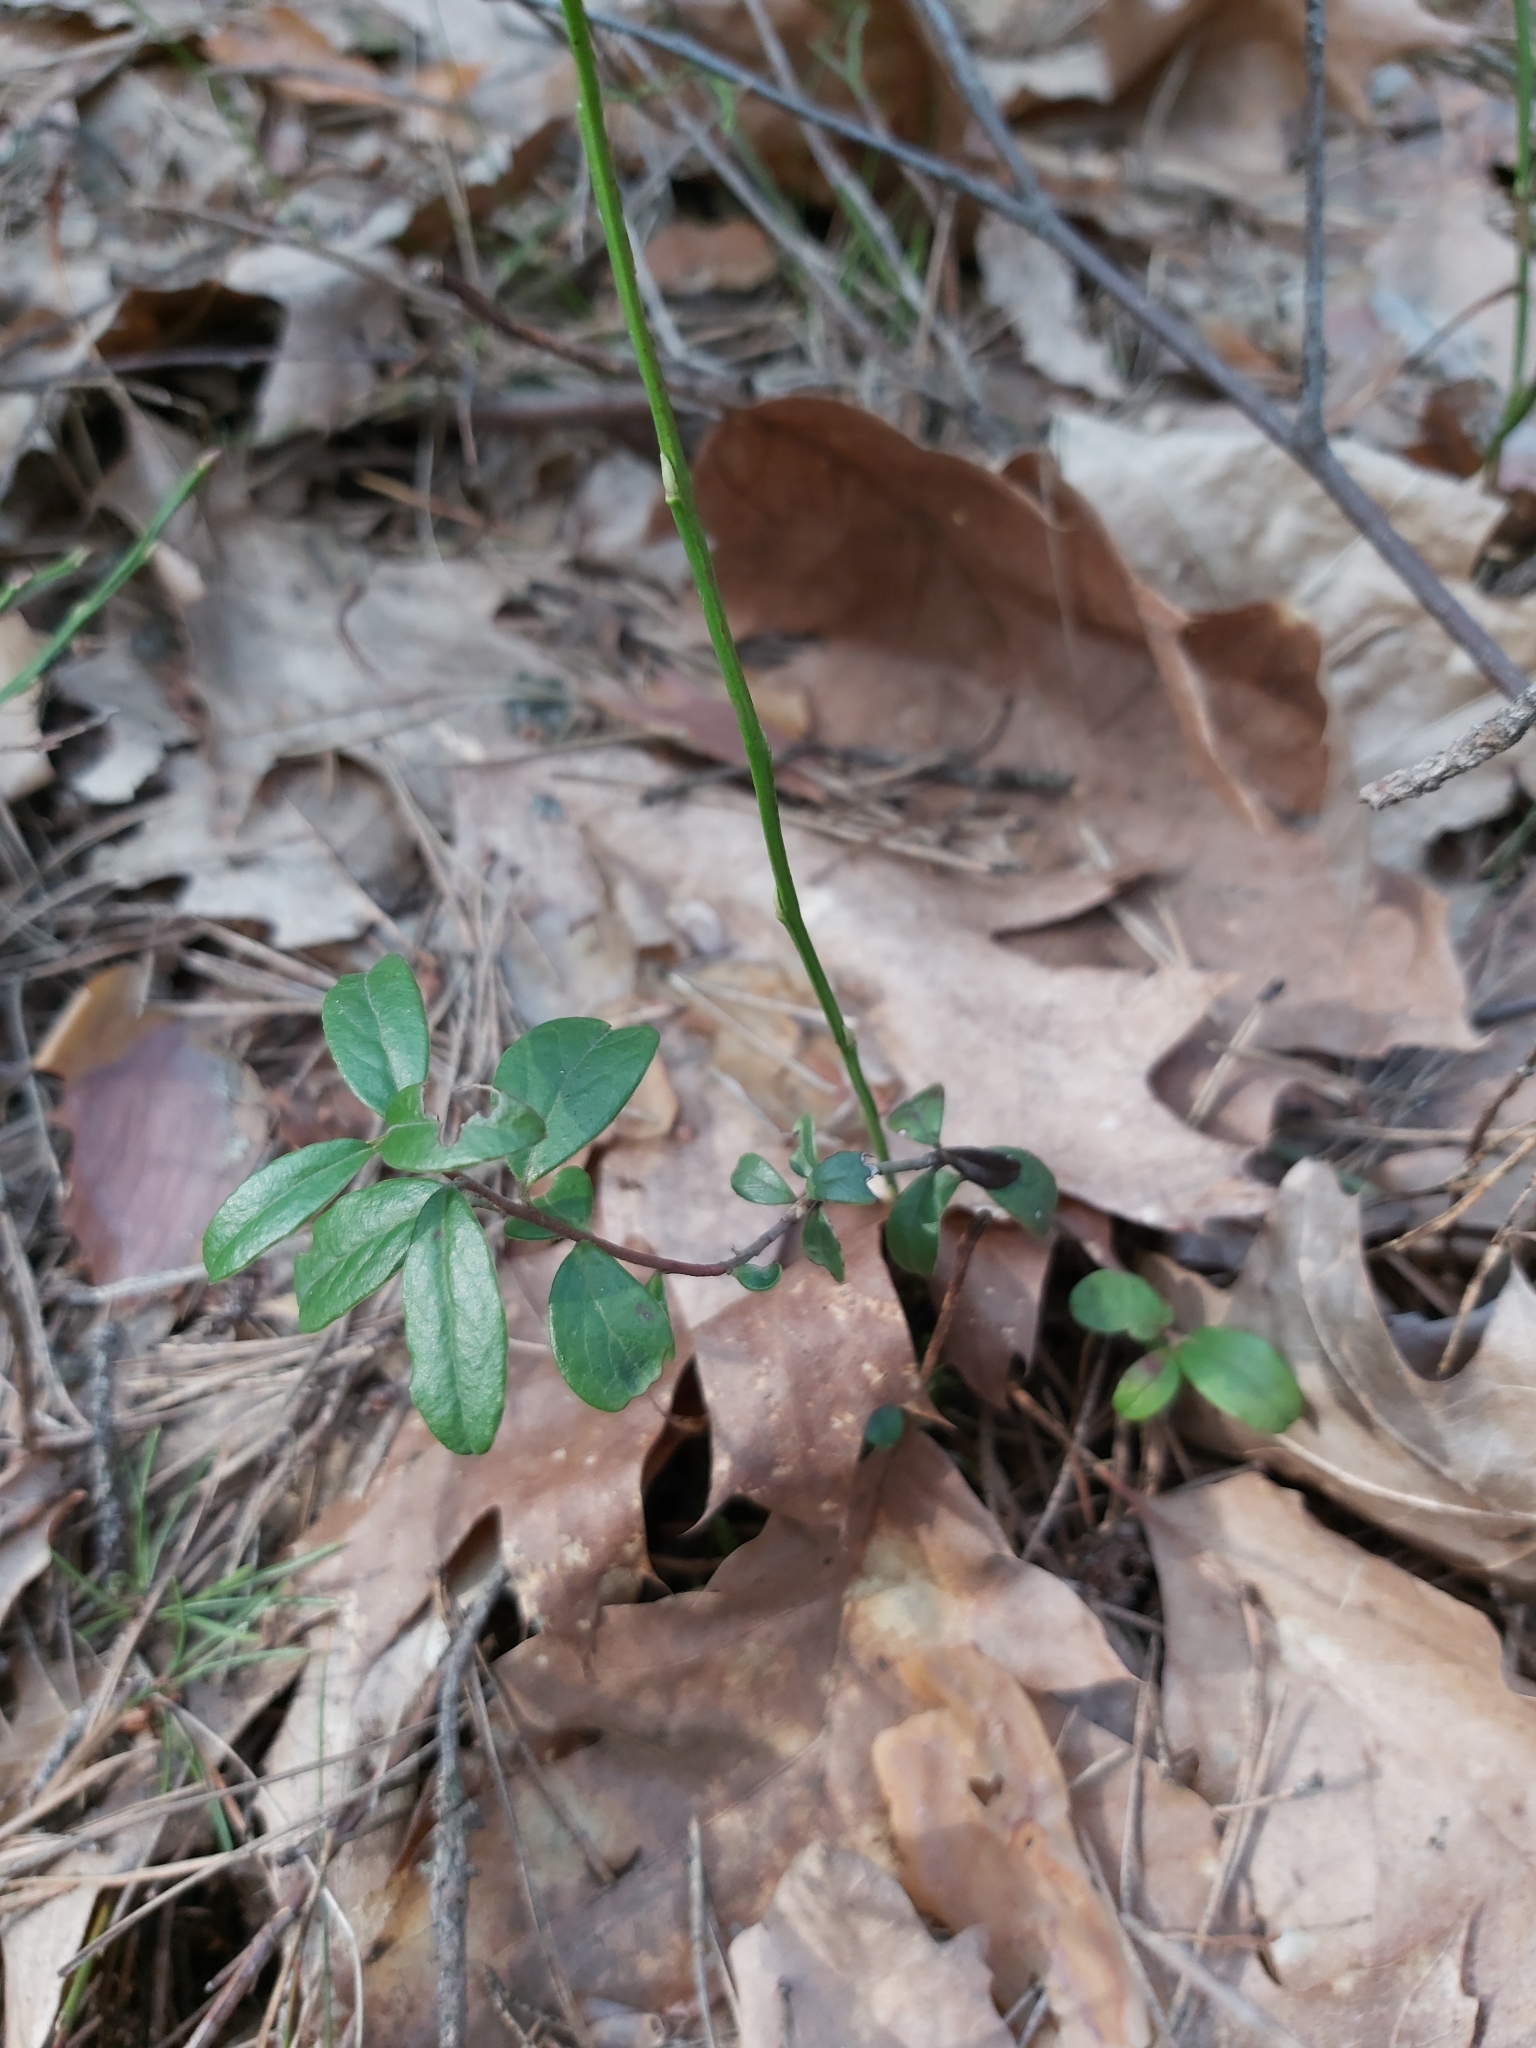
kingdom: Plantae
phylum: Tracheophyta
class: Magnoliopsida
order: Ericales
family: Ericaceae
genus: Vaccinium
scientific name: Vaccinium vitis-idaea
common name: Cowberry
